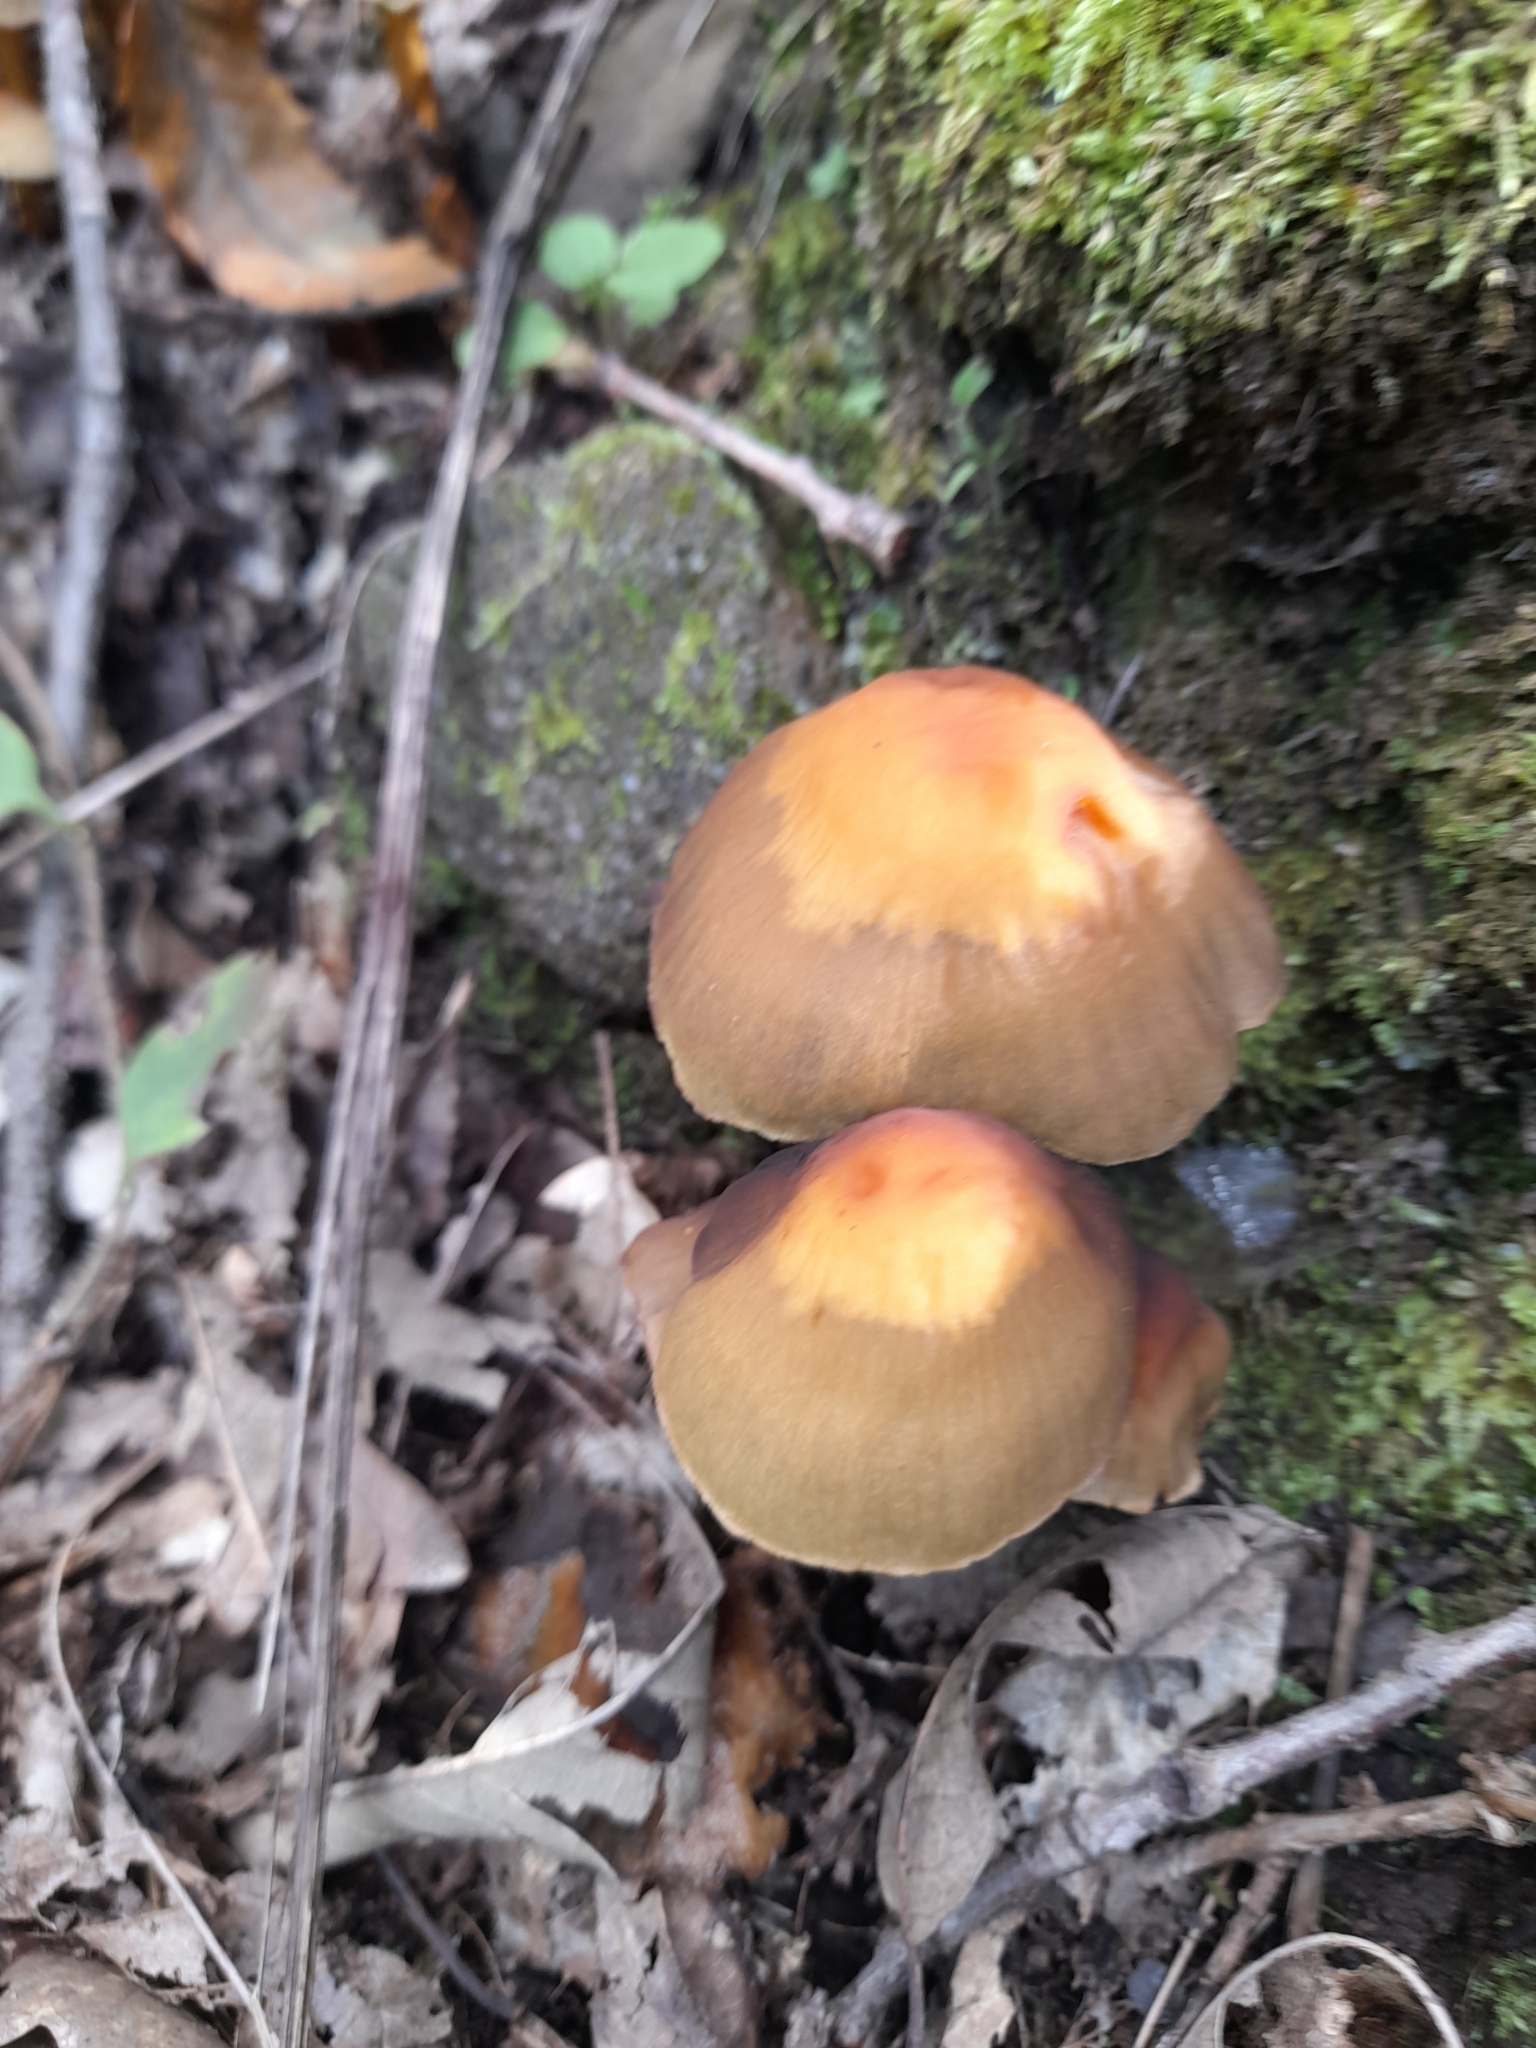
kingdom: Fungi
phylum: Basidiomycota
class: Agaricomycetes
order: Agaricales
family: Strophariaceae
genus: Hypholoma
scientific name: Hypholoma fasciculare
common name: Sulphur tuft
